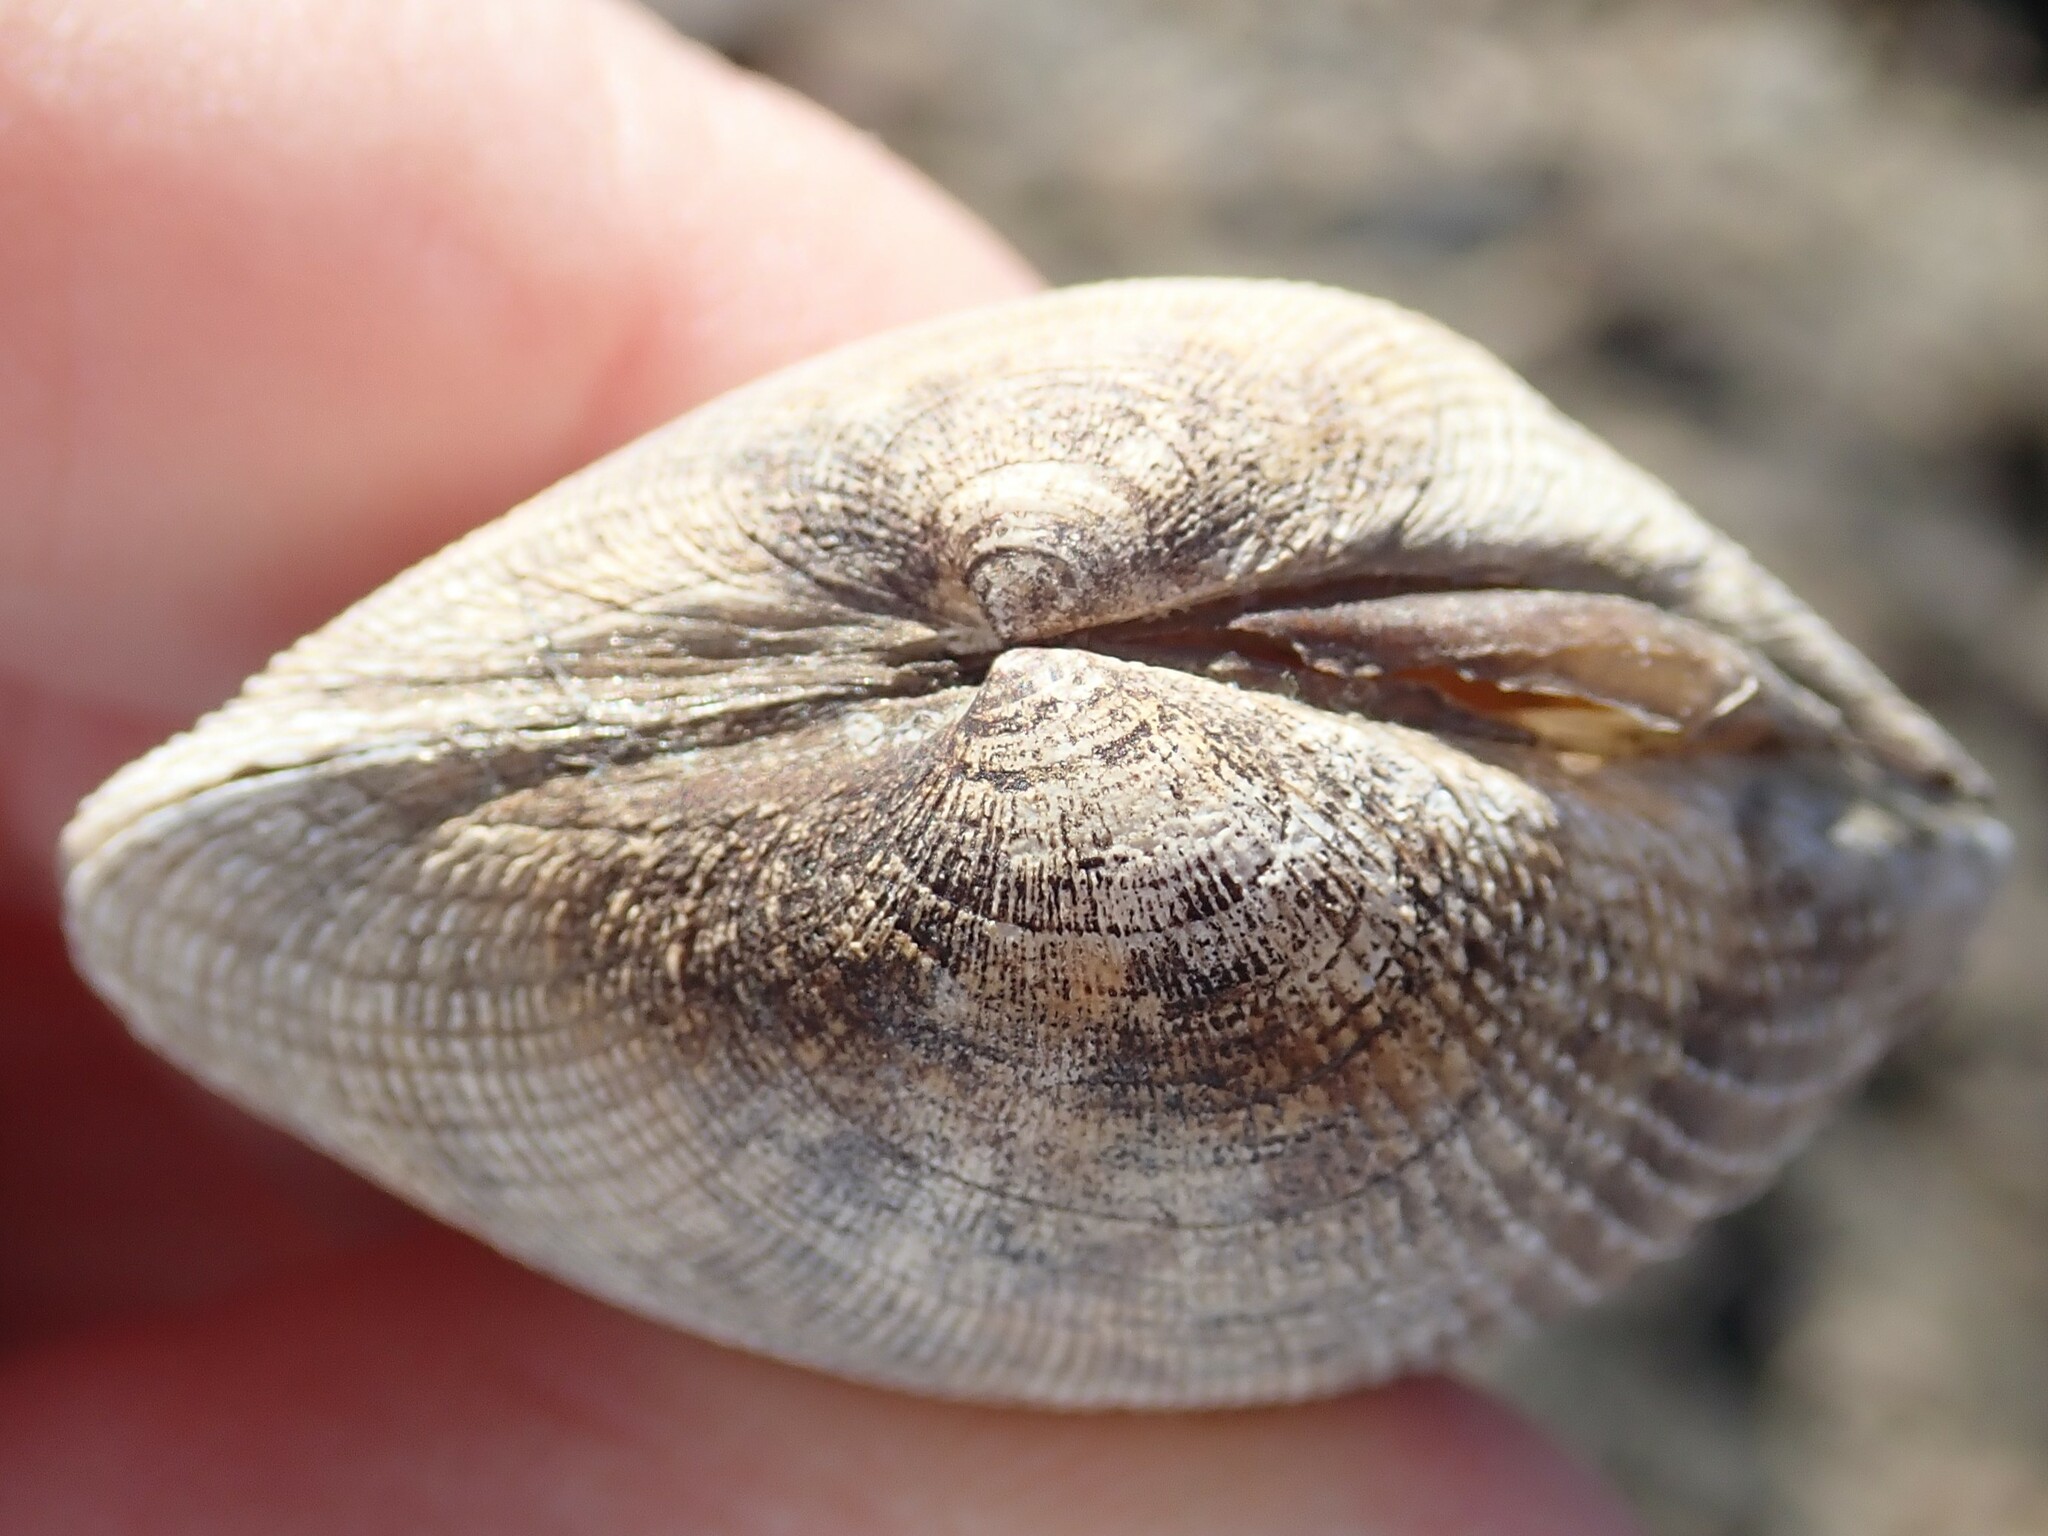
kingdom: Animalia
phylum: Mollusca
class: Bivalvia
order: Venerida
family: Veneridae
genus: Ruditapes
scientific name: Ruditapes philippinarum
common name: Manila clam
